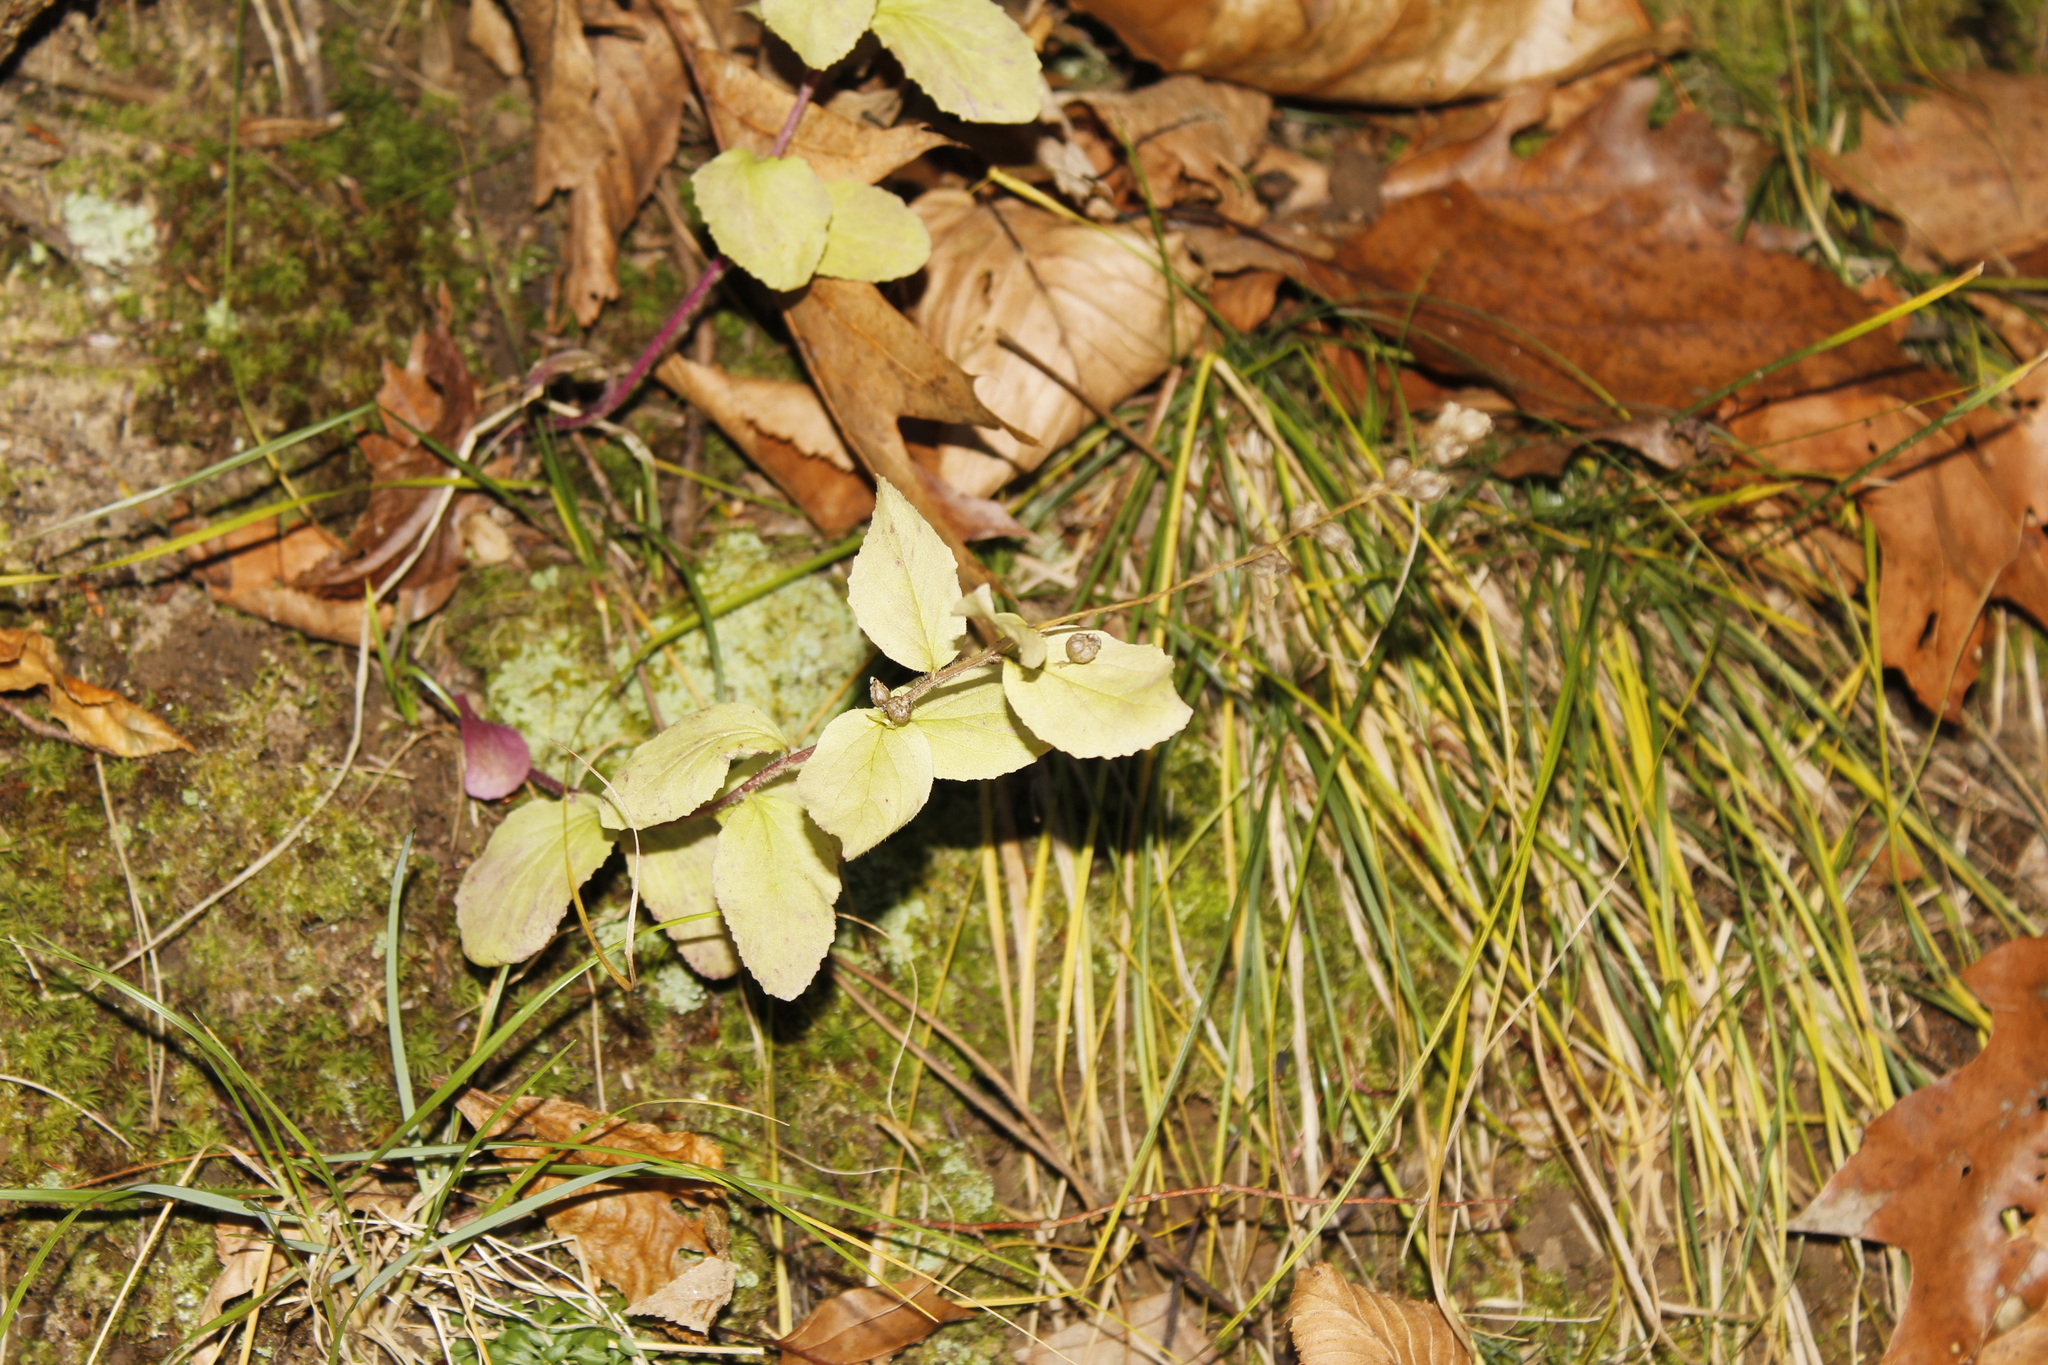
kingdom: Plantae
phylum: Tracheophyta
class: Magnoliopsida
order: Asterales
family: Campanulaceae
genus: Lobelia
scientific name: Lobelia inflata
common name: Indian tobacco
